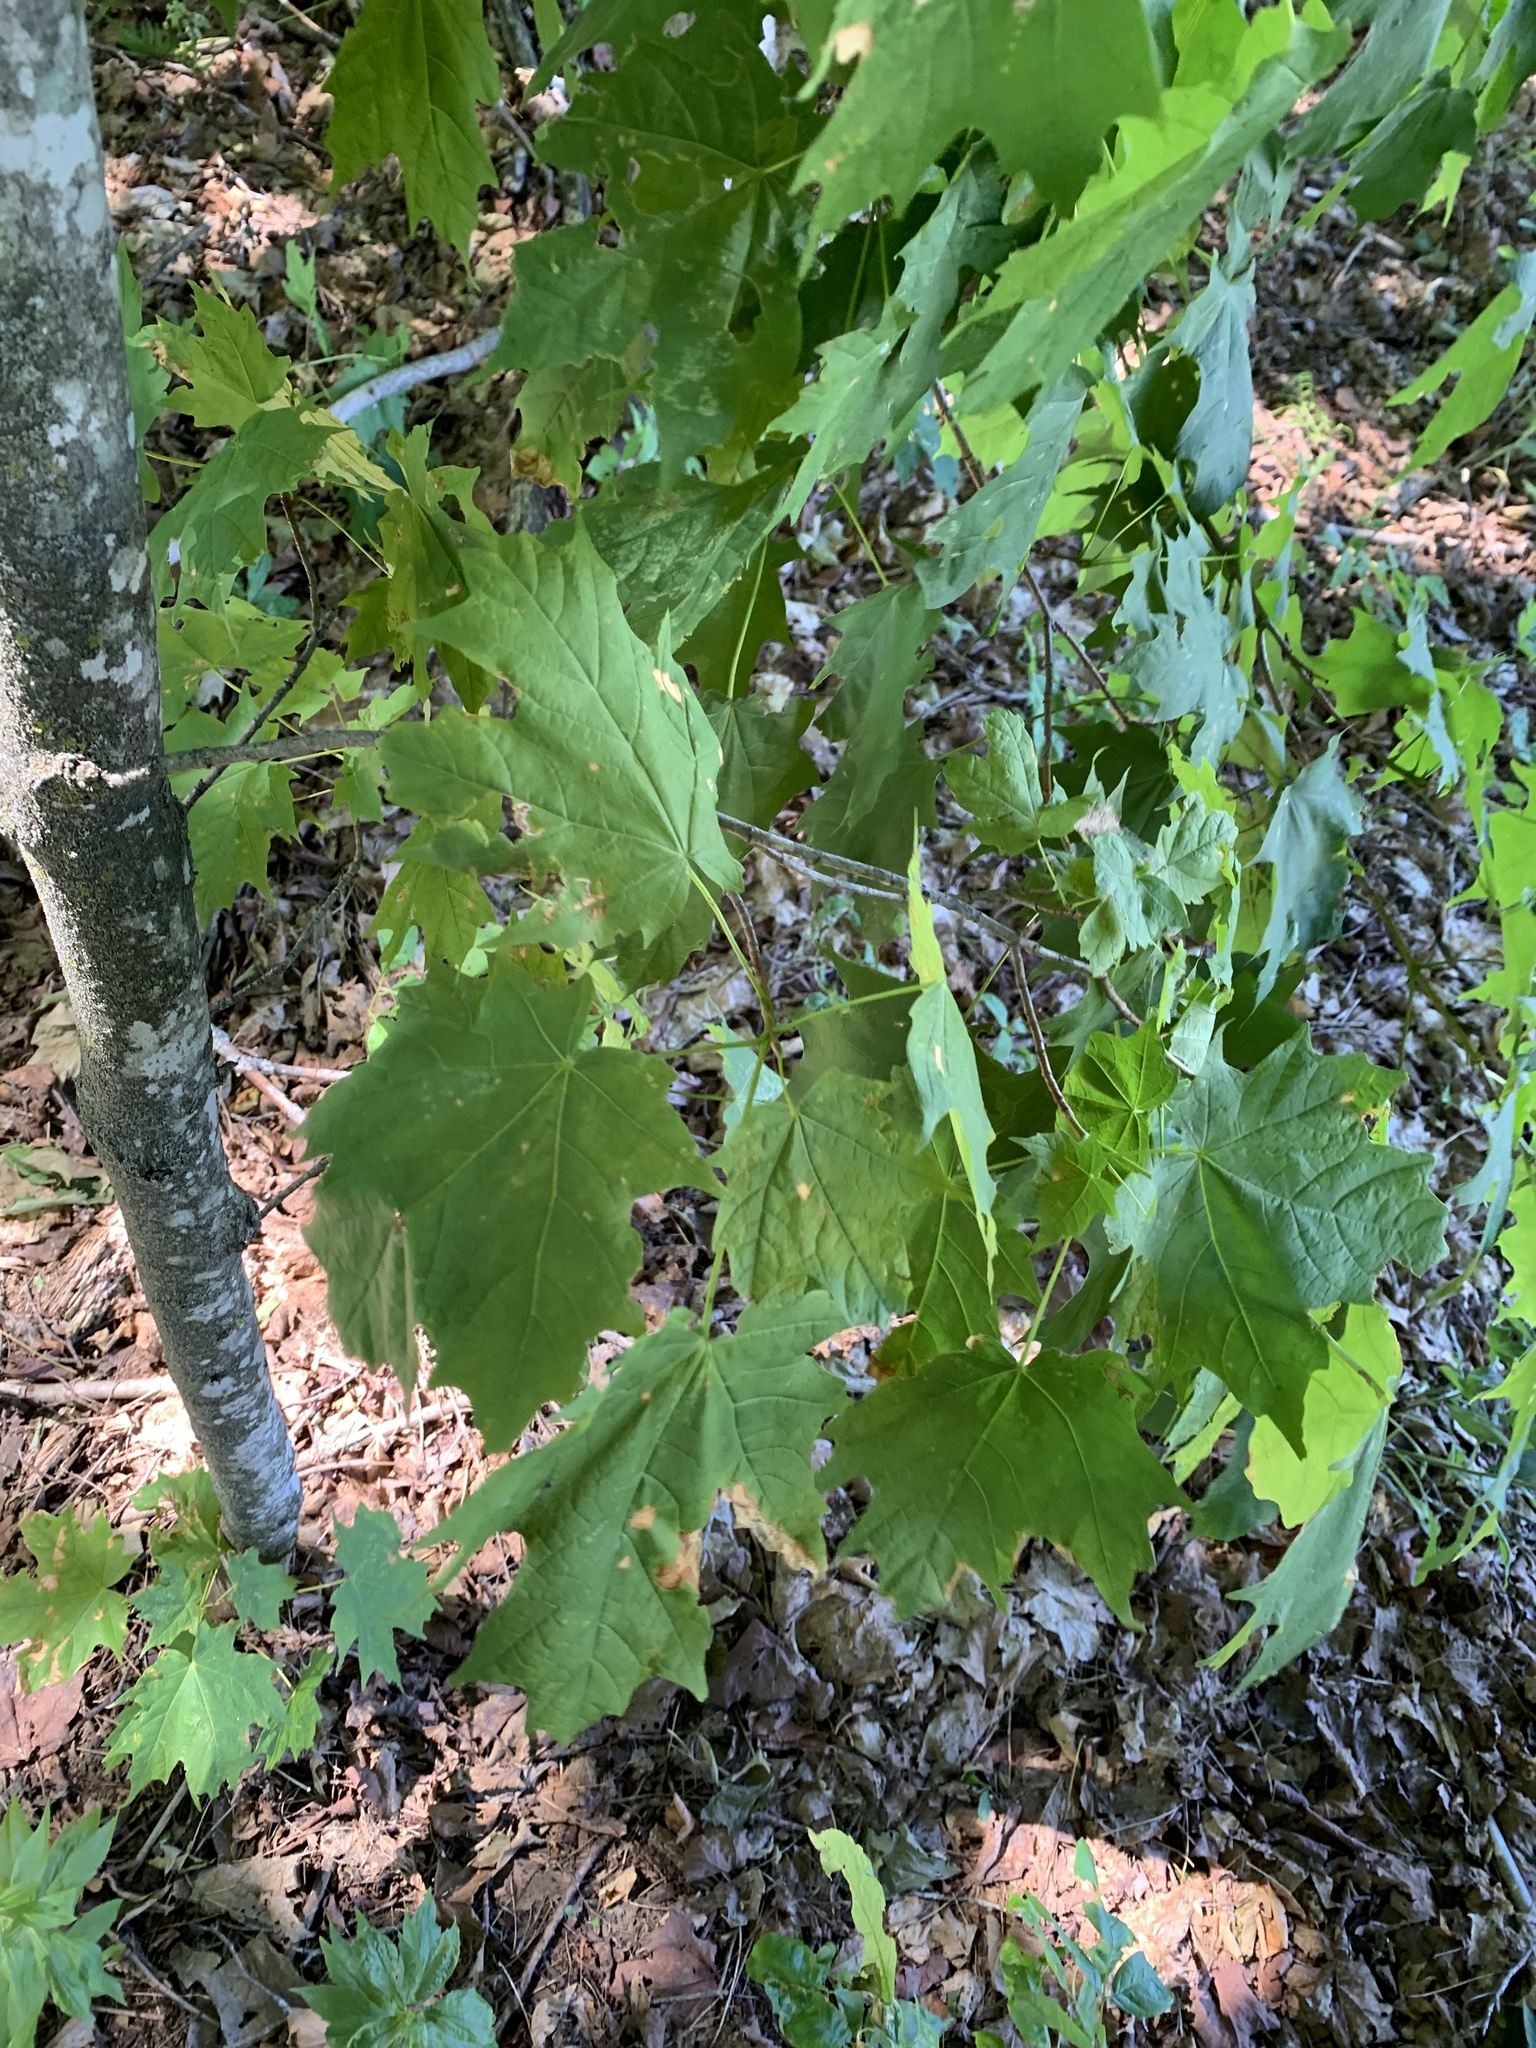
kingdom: Plantae
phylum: Tracheophyta
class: Magnoliopsida
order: Sapindales
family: Sapindaceae
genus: Acer
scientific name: Acer saccharum
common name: Sugar maple
